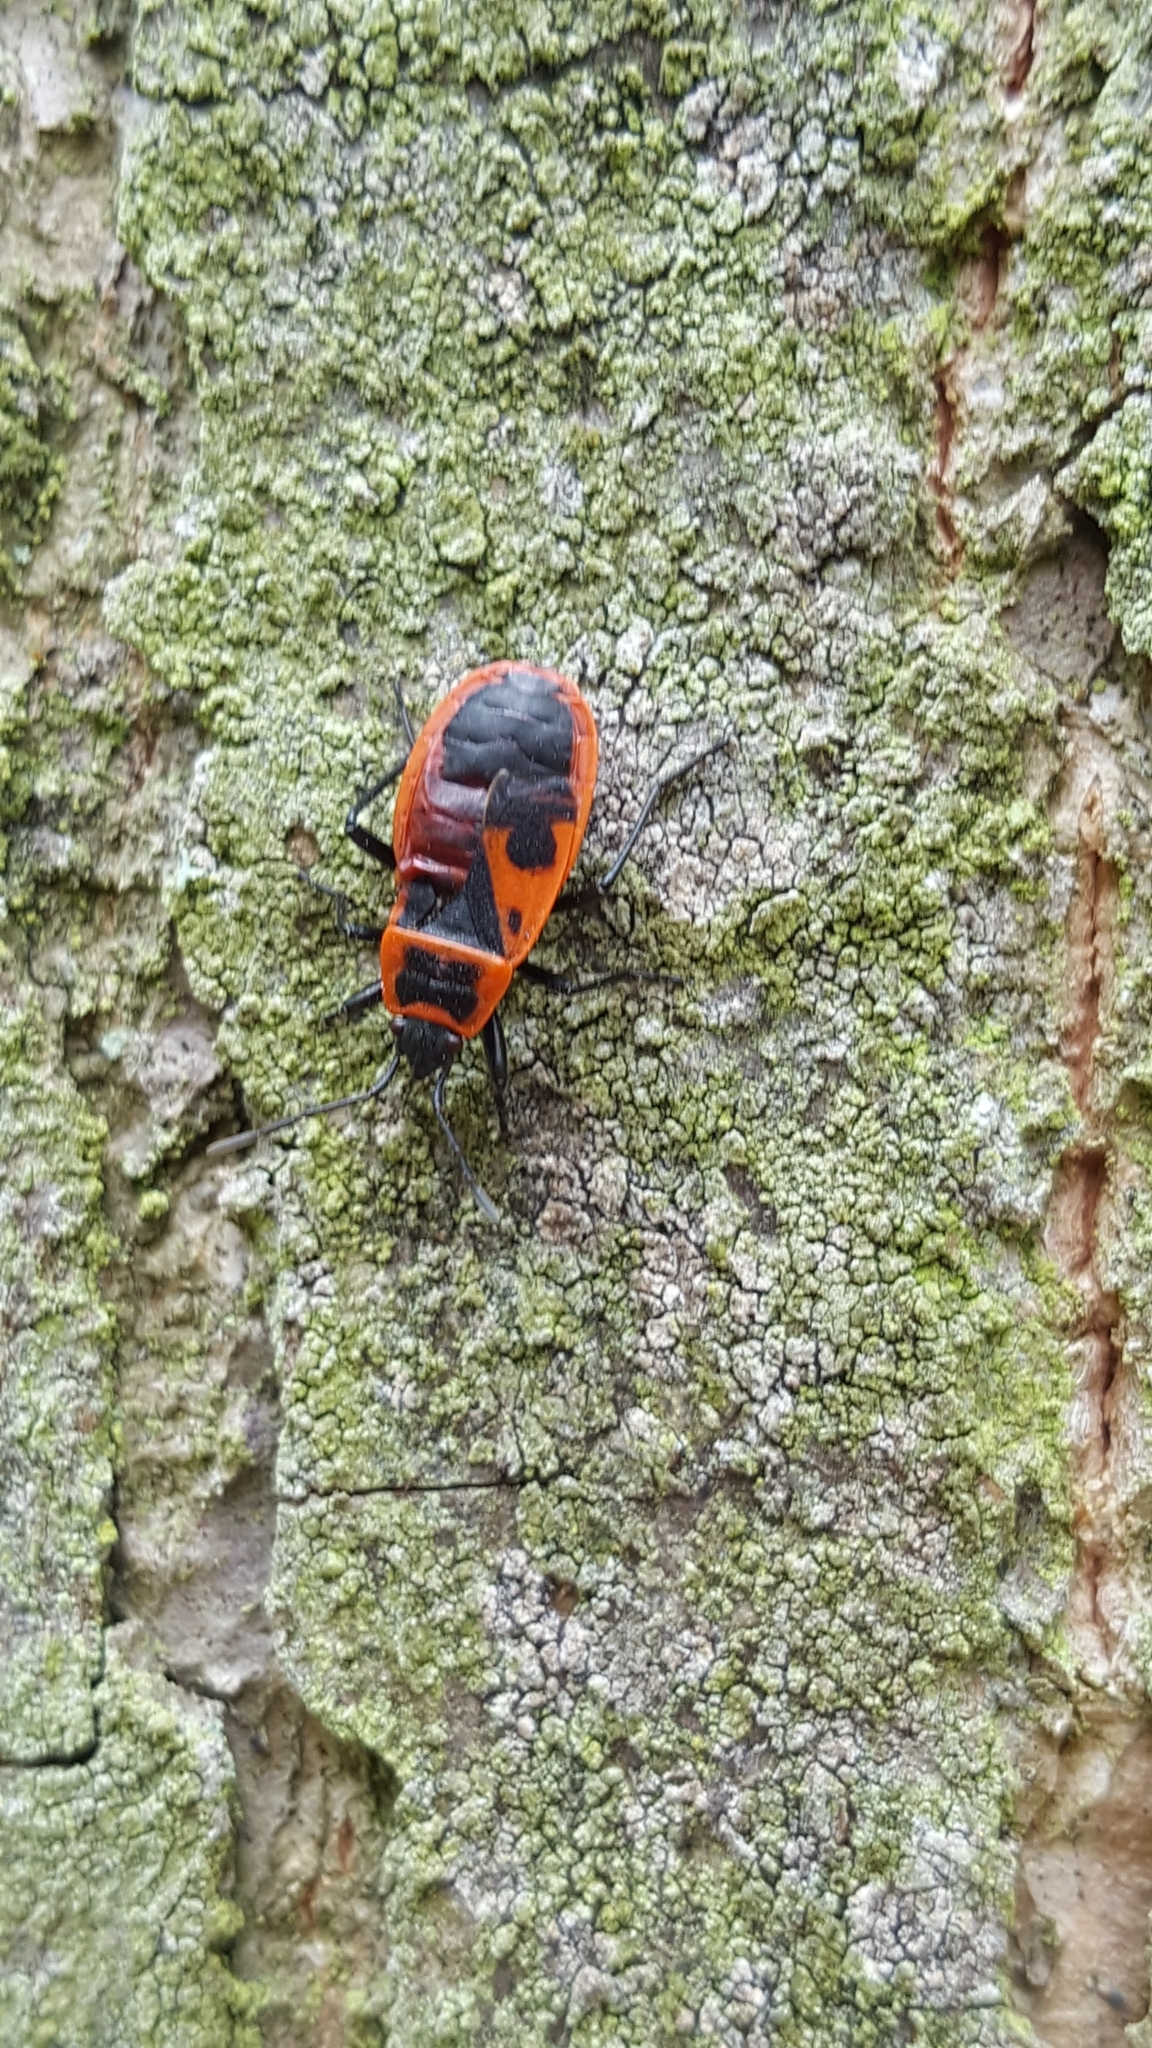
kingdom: Animalia
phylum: Arthropoda
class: Insecta
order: Hemiptera
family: Pyrrhocoridae
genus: Pyrrhocoris
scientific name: Pyrrhocoris apterus
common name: Firebug
